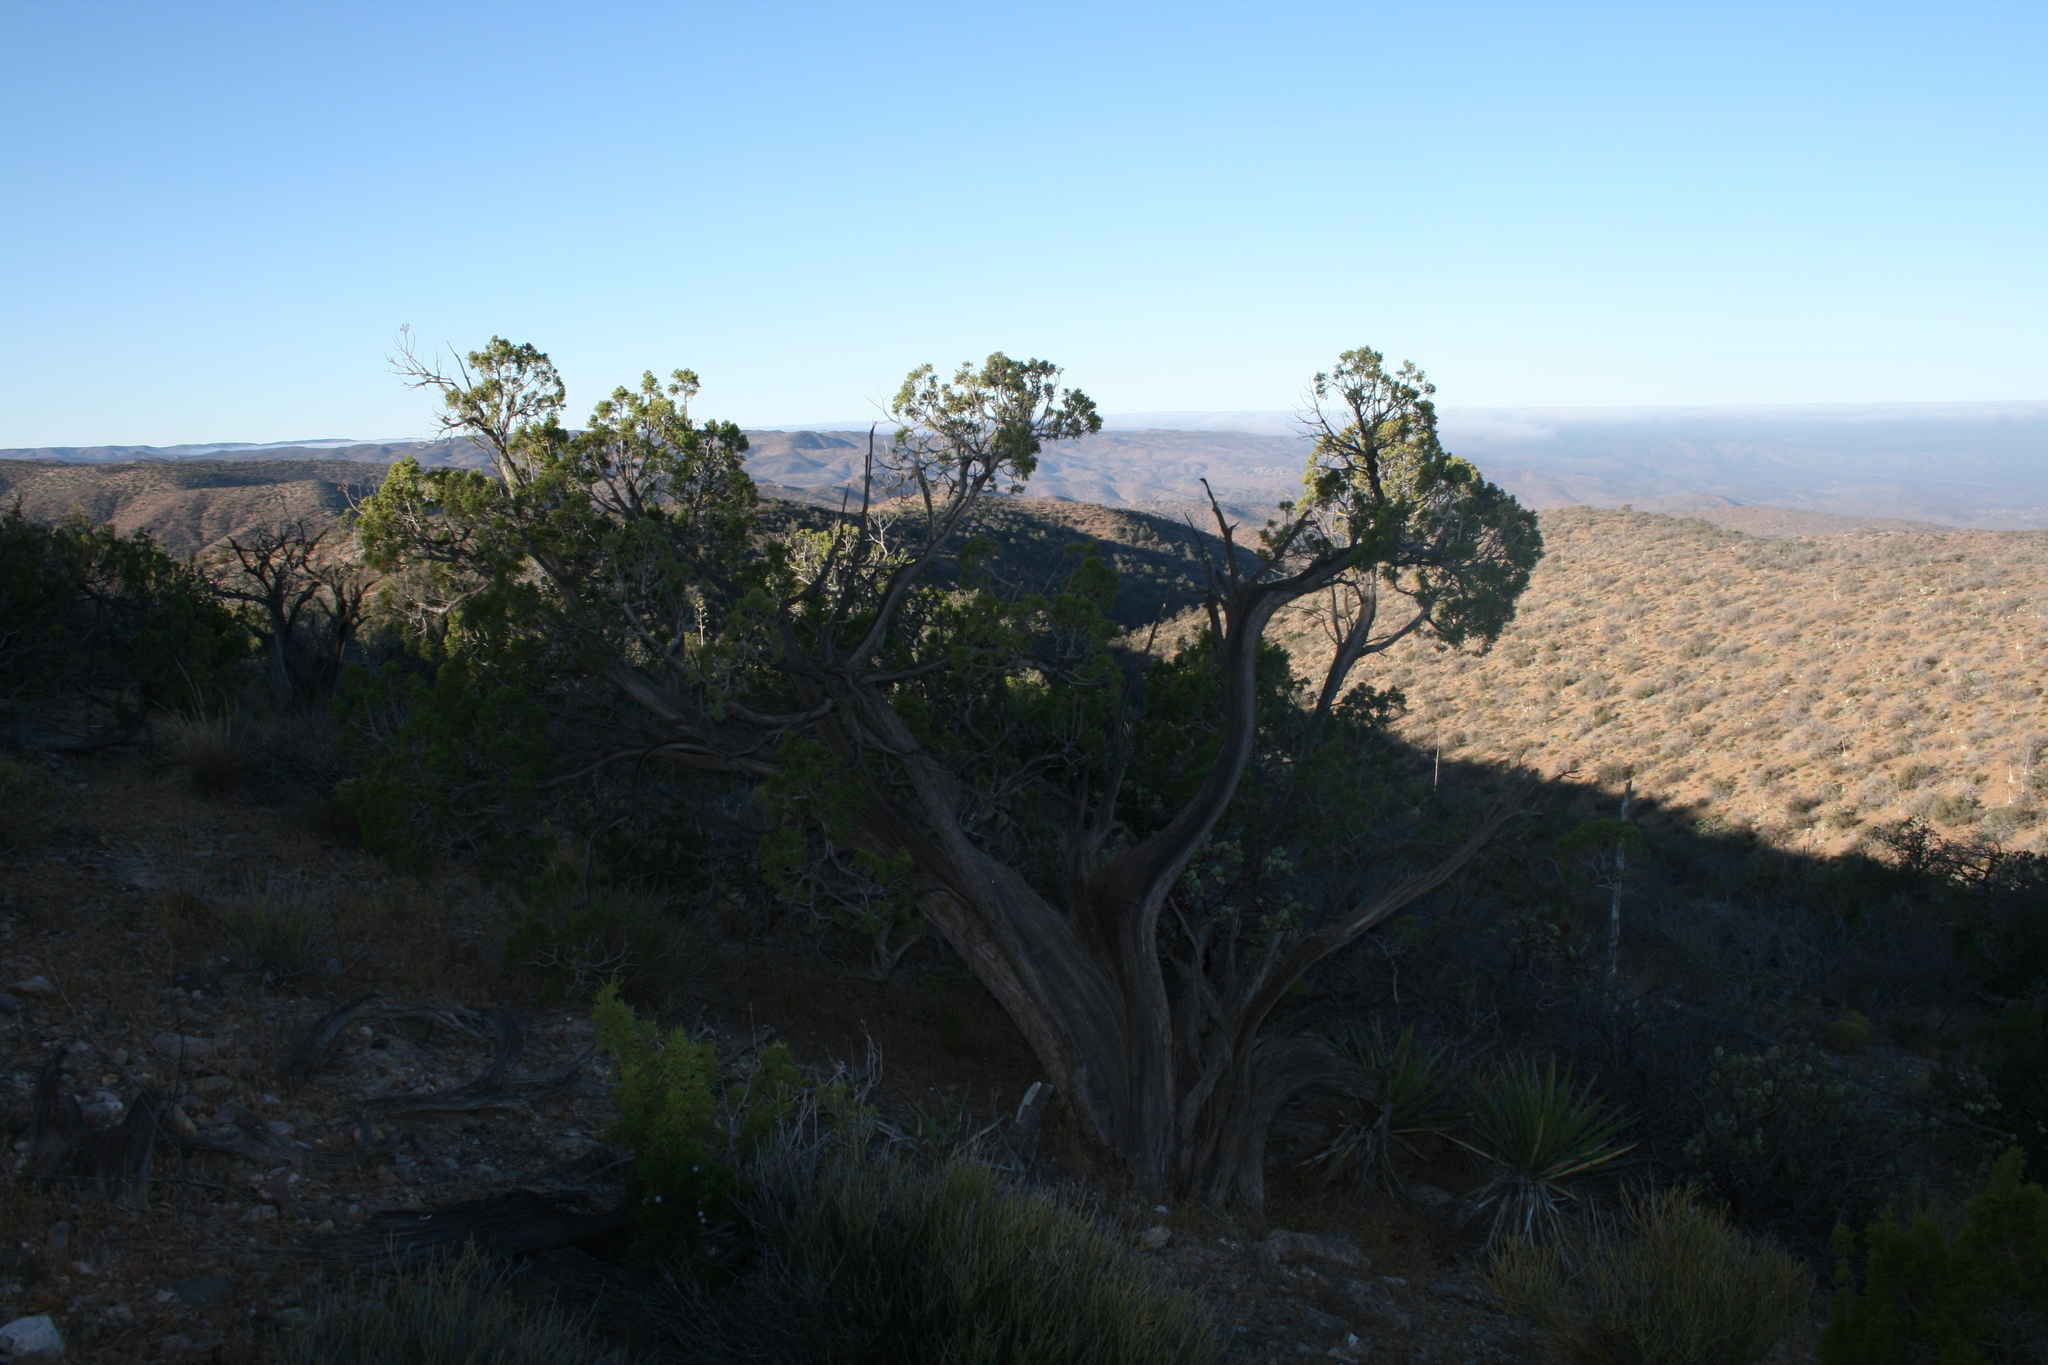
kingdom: Plantae
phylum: Tracheophyta
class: Pinopsida
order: Pinales
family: Cupressaceae
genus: Juniperus
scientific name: Juniperus californica
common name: California juniper
